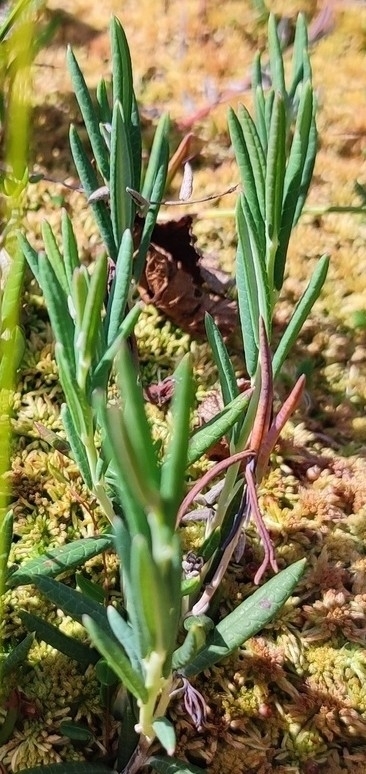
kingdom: Plantae
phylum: Tracheophyta
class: Magnoliopsida
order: Ericales
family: Ericaceae
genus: Andromeda
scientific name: Andromeda polifolia
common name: Bog-rosemary
